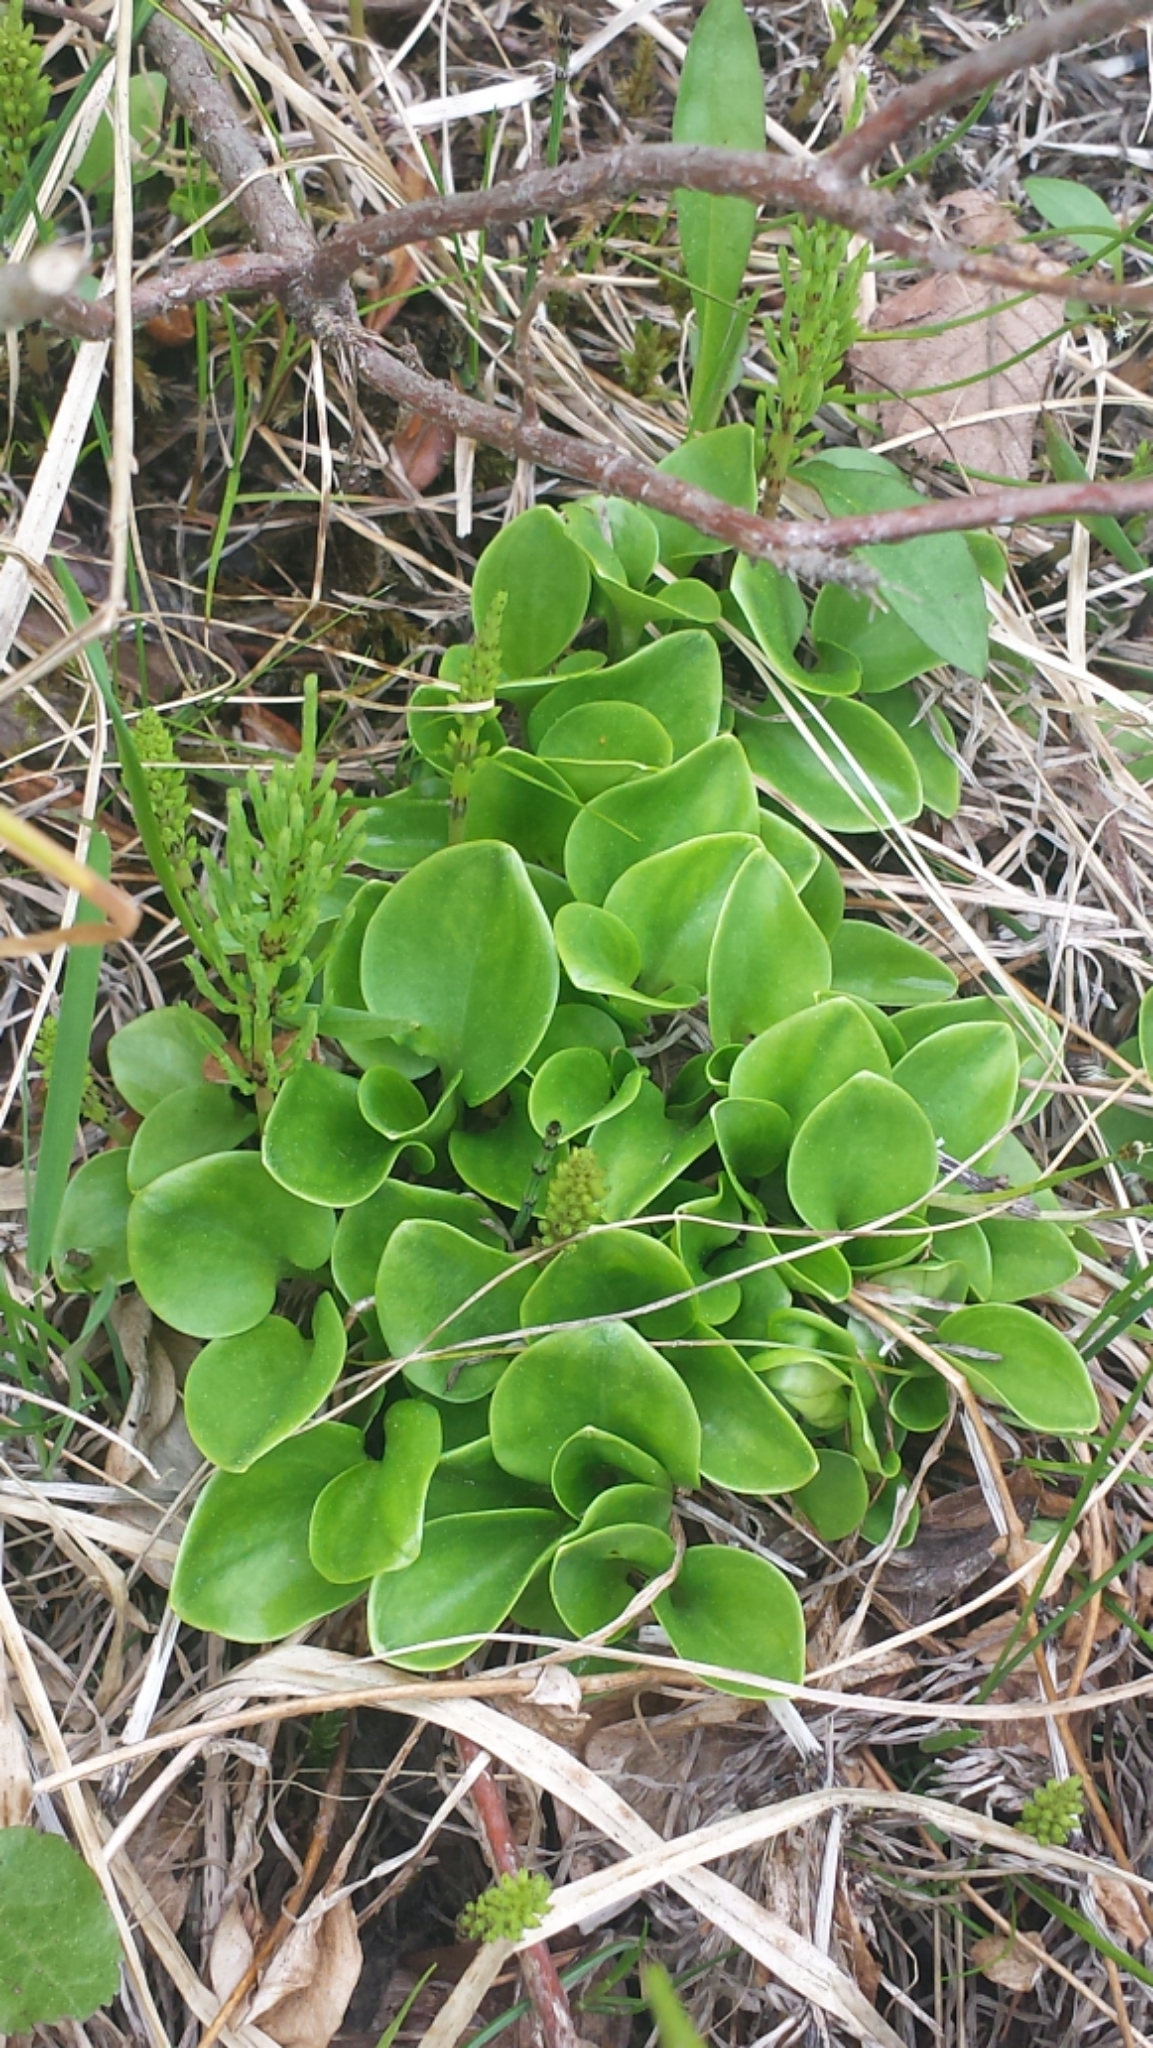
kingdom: Plantae
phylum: Tracheophyta
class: Magnoliopsida
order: Celastrales
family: Parnassiaceae
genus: Parnassia
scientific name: Parnassia glauca
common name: American grass-of-parnassus
